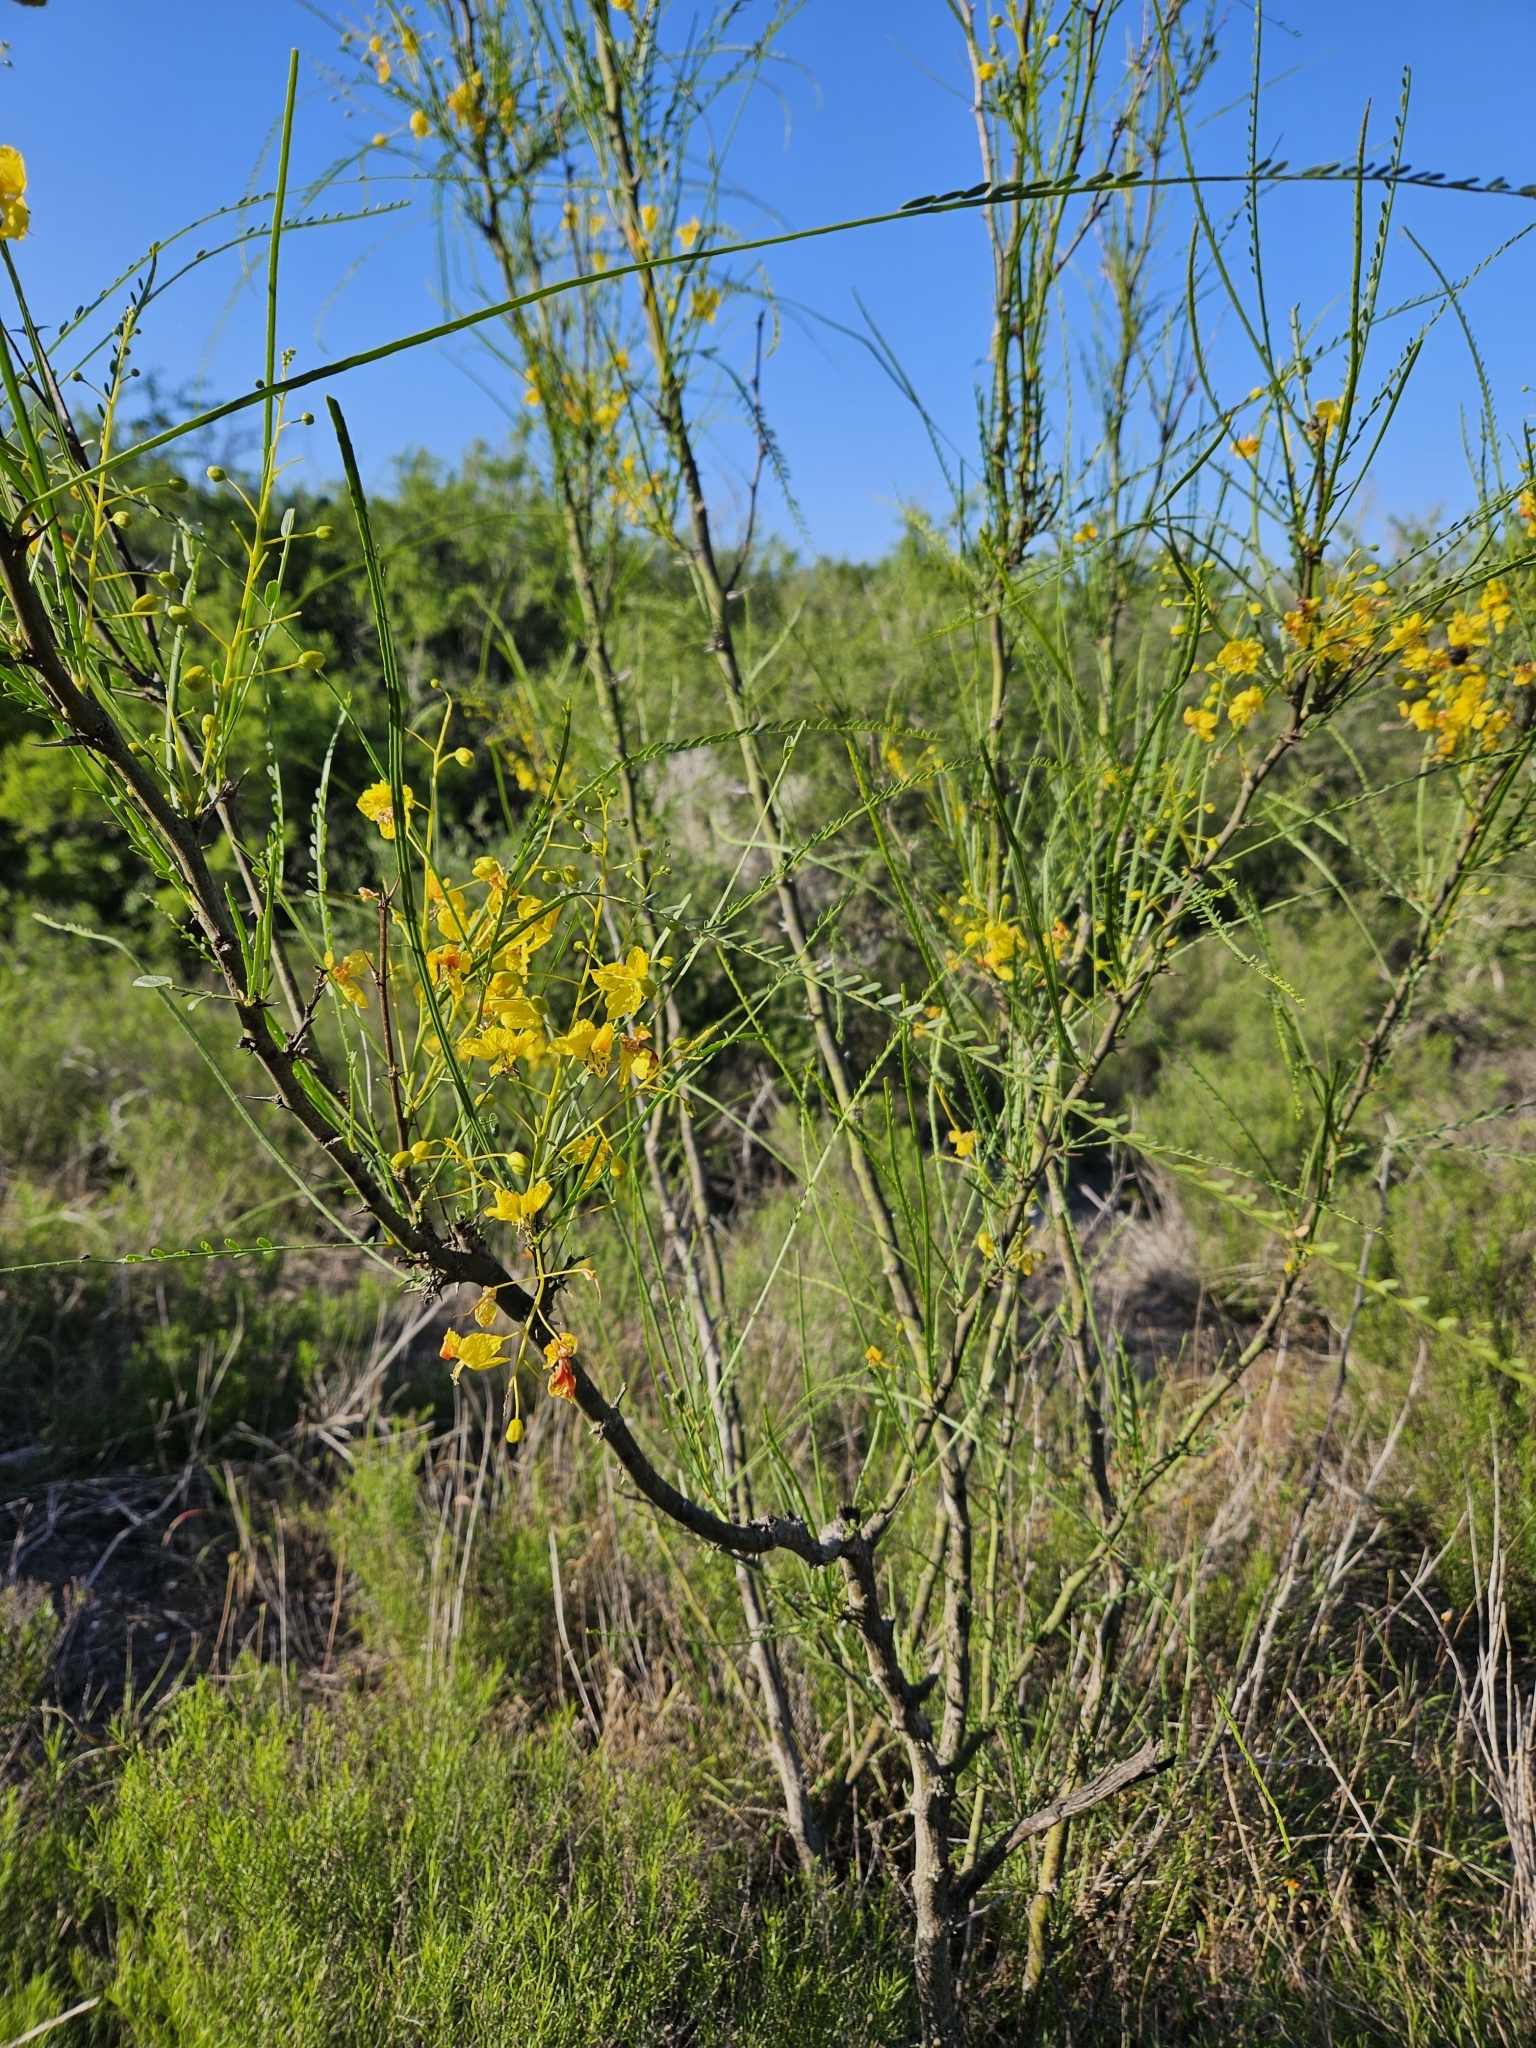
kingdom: Plantae
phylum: Tracheophyta
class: Magnoliopsida
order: Fabales
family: Fabaceae
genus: Parkinsonia
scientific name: Parkinsonia aculeata
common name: Jerusalem thorn
